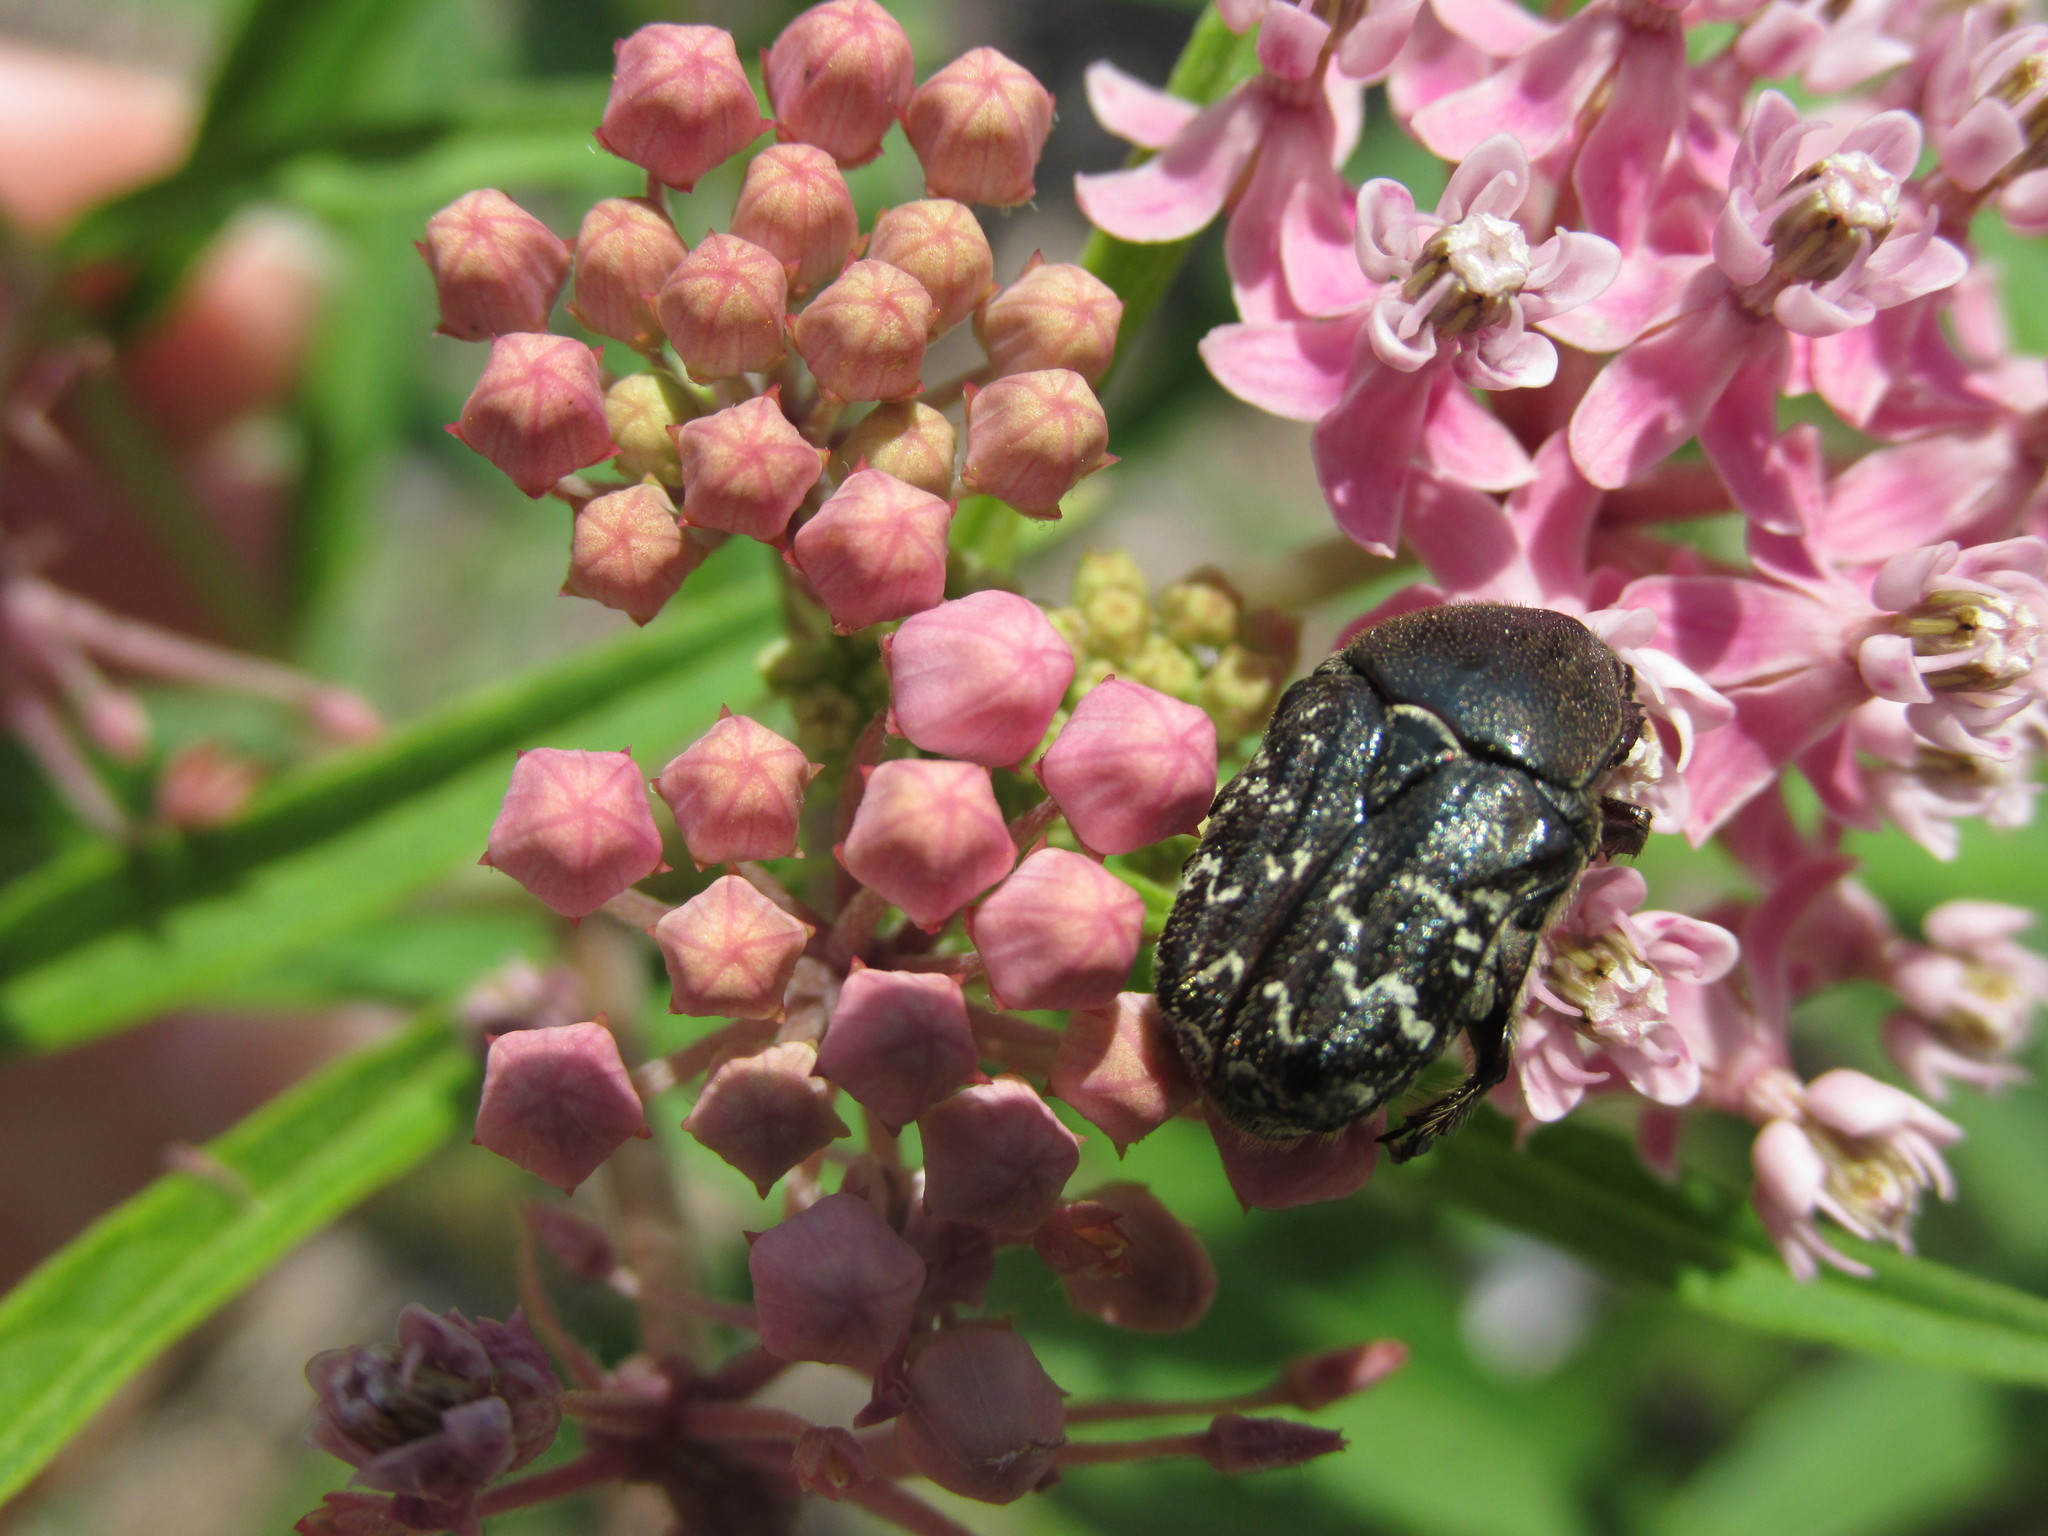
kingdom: Animalia
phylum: Arthropoda
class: Insecta
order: Coleoptera
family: Scarabaeidae
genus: Euphoria
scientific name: Euphoria sepulcralis
